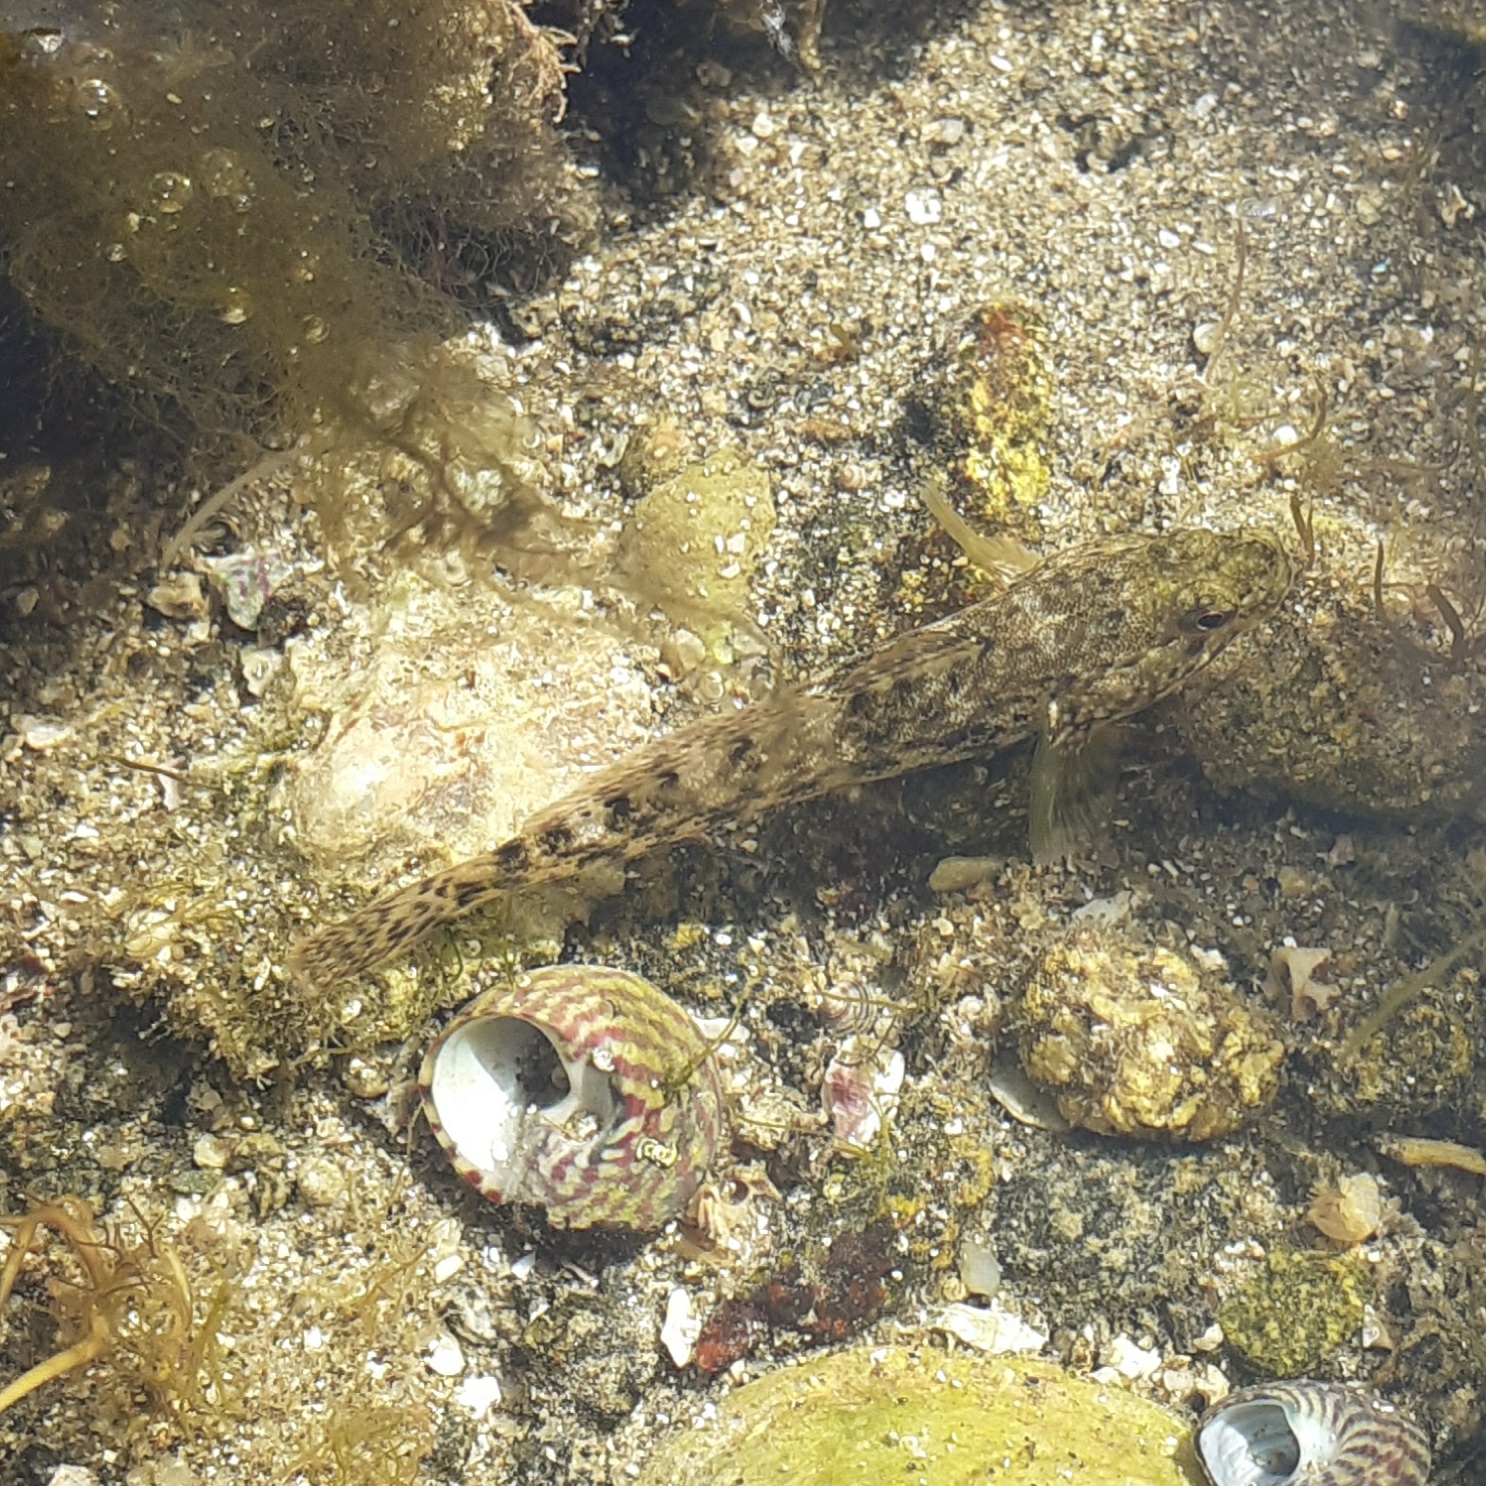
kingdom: Animalia
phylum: Chordata
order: Perciformes
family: Gobiidae
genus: Gobius
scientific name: Gobius cobitis
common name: Giant goby
